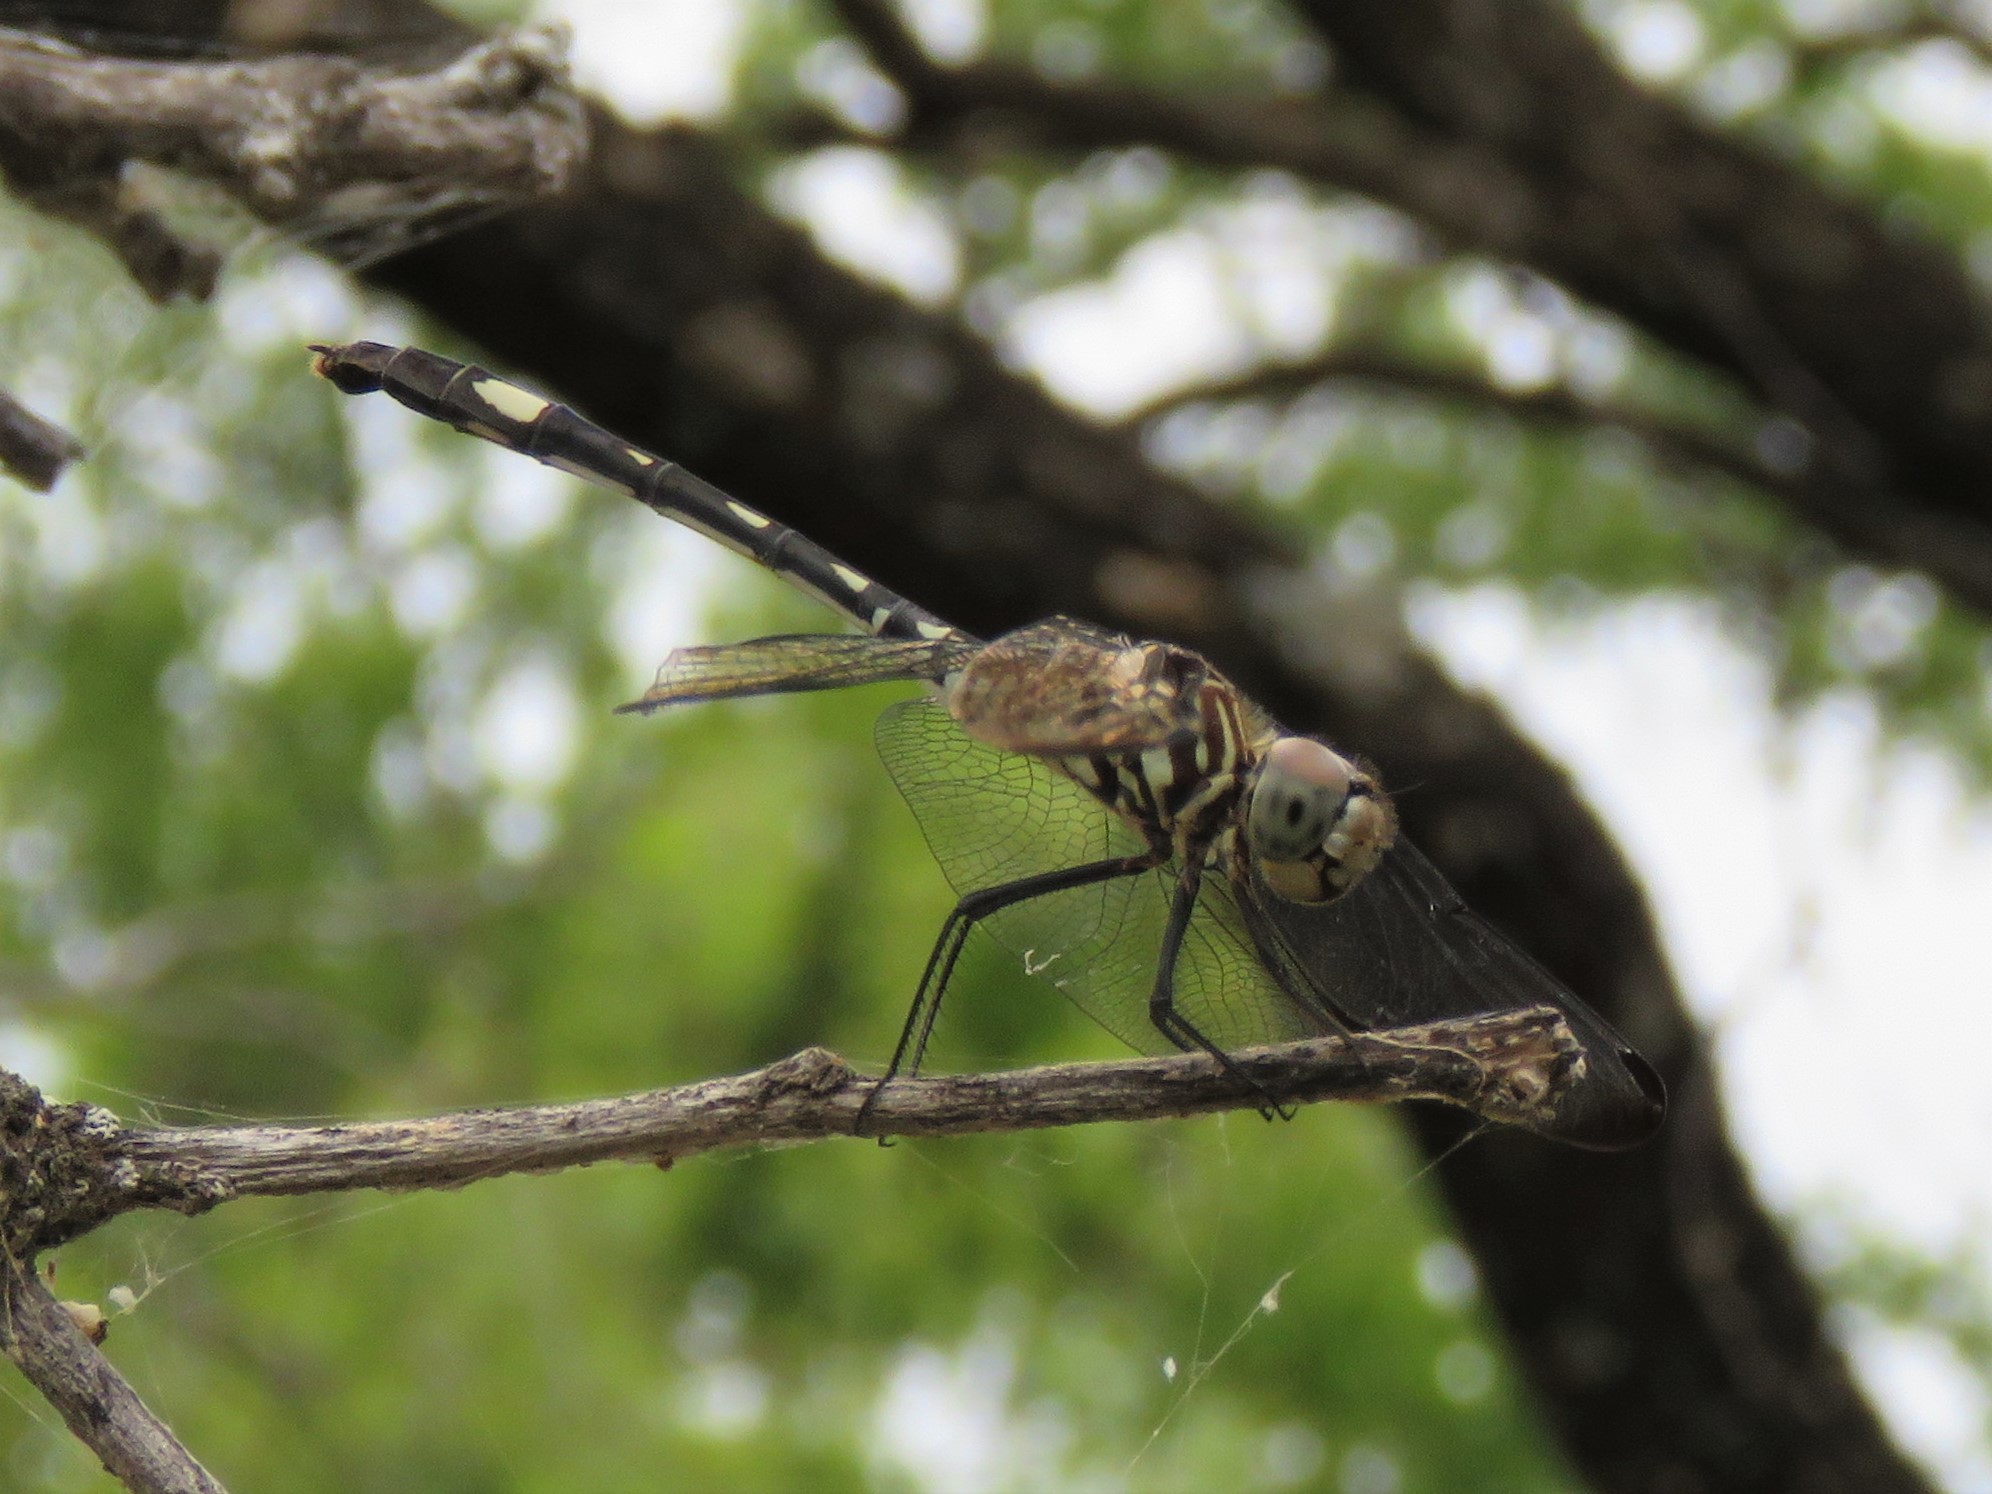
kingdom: Animalia
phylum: Arthropoda
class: Insecta
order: Odonata
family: Libellulidae
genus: Dythemis
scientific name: Dythemis velox
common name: Swift setwing
